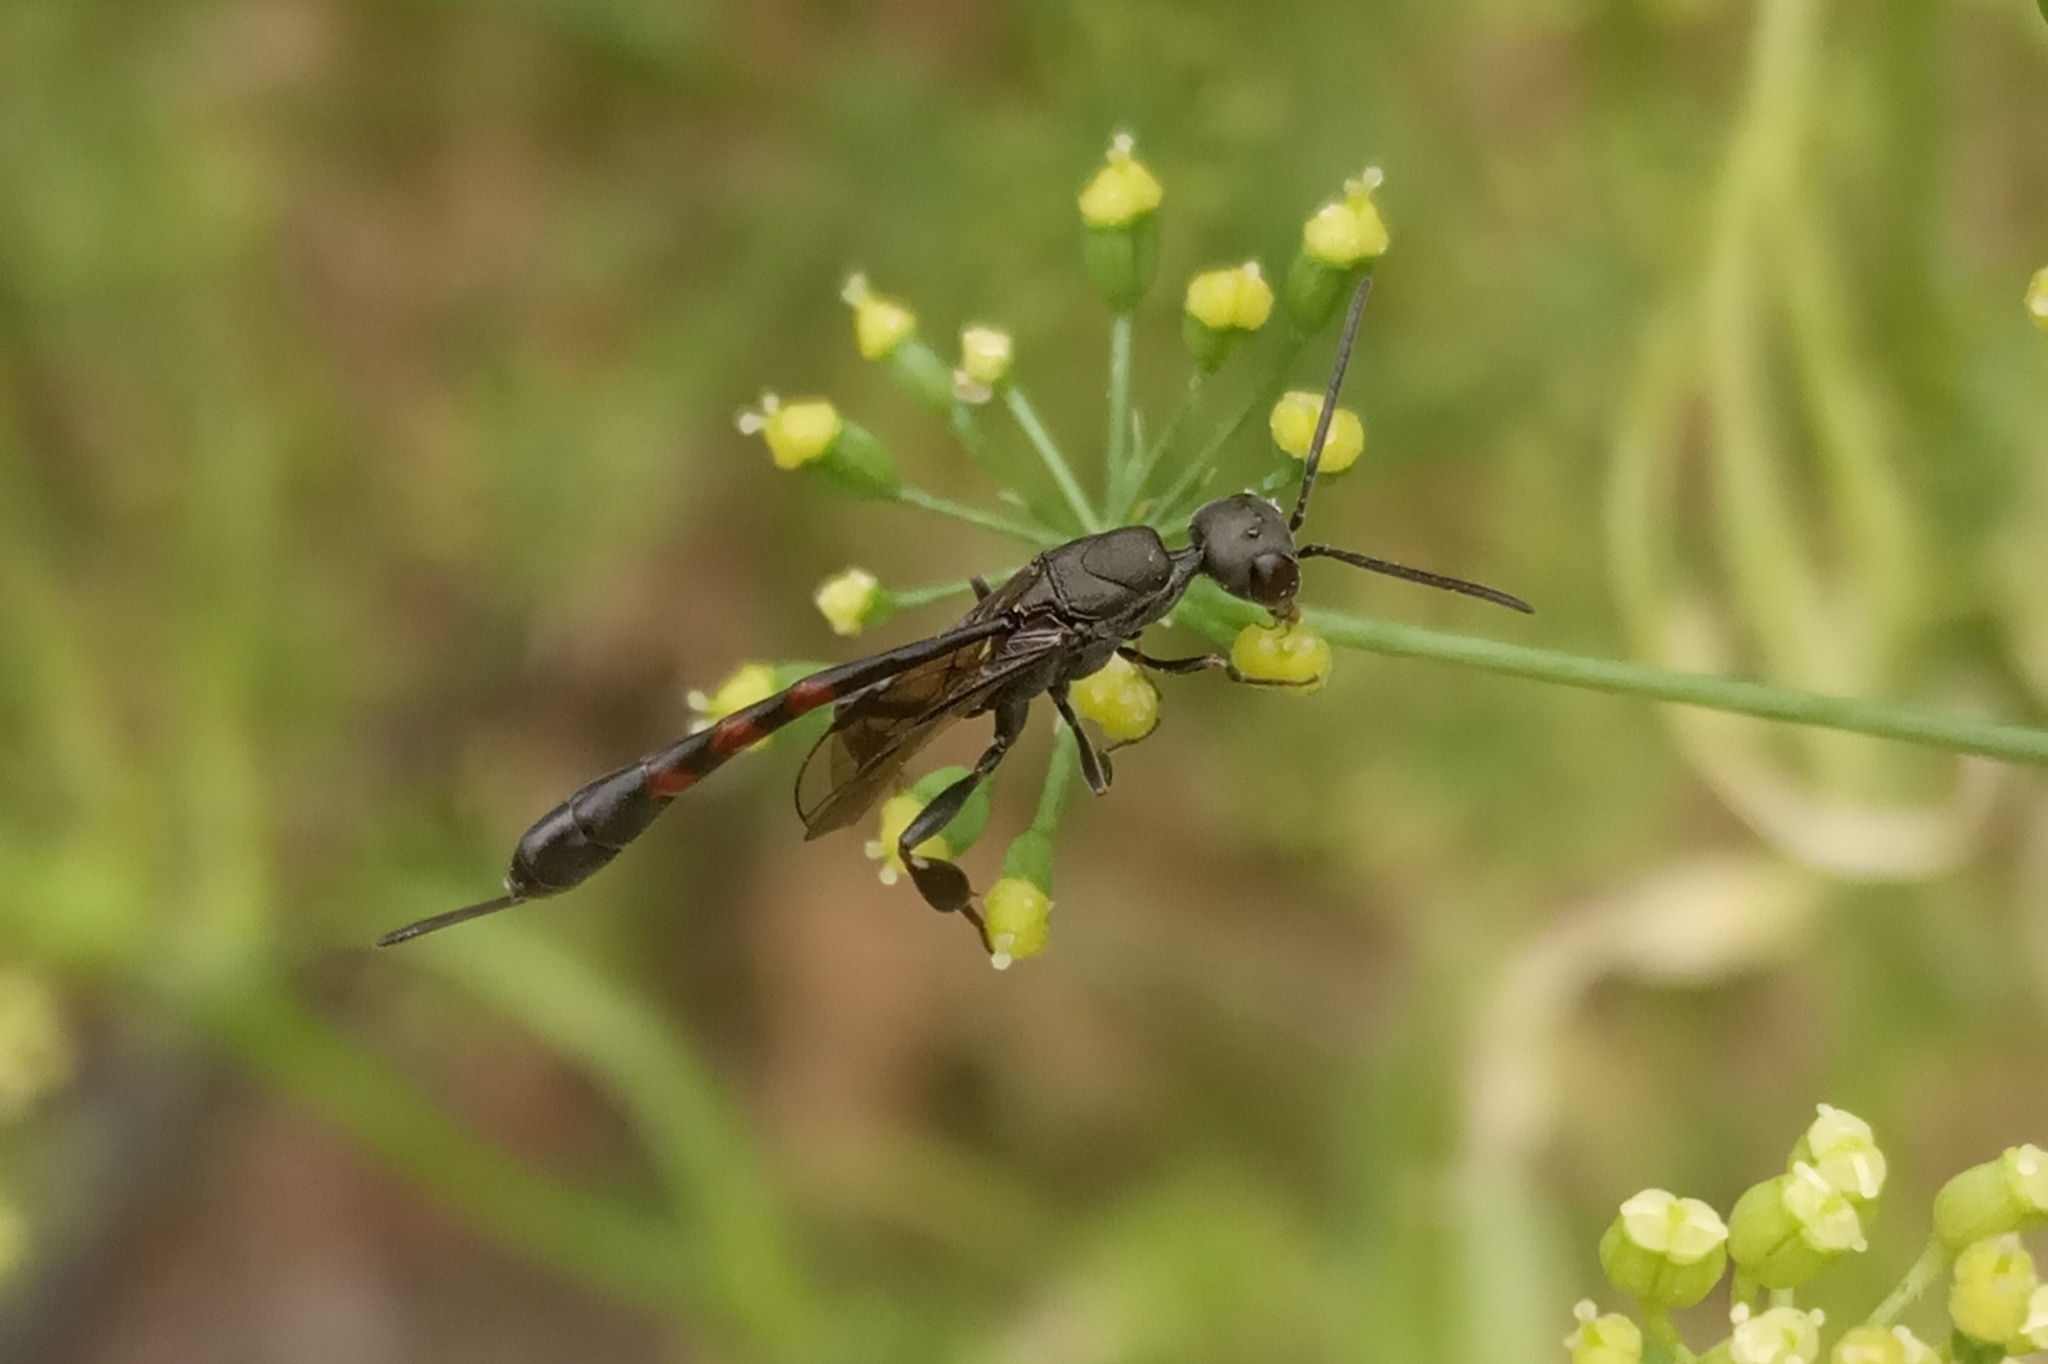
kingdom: Animalia
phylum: Arthropoda
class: Insecta
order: Hymenoptera
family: Gasteruptiidae
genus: Gasteruption
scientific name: Gasteruption
